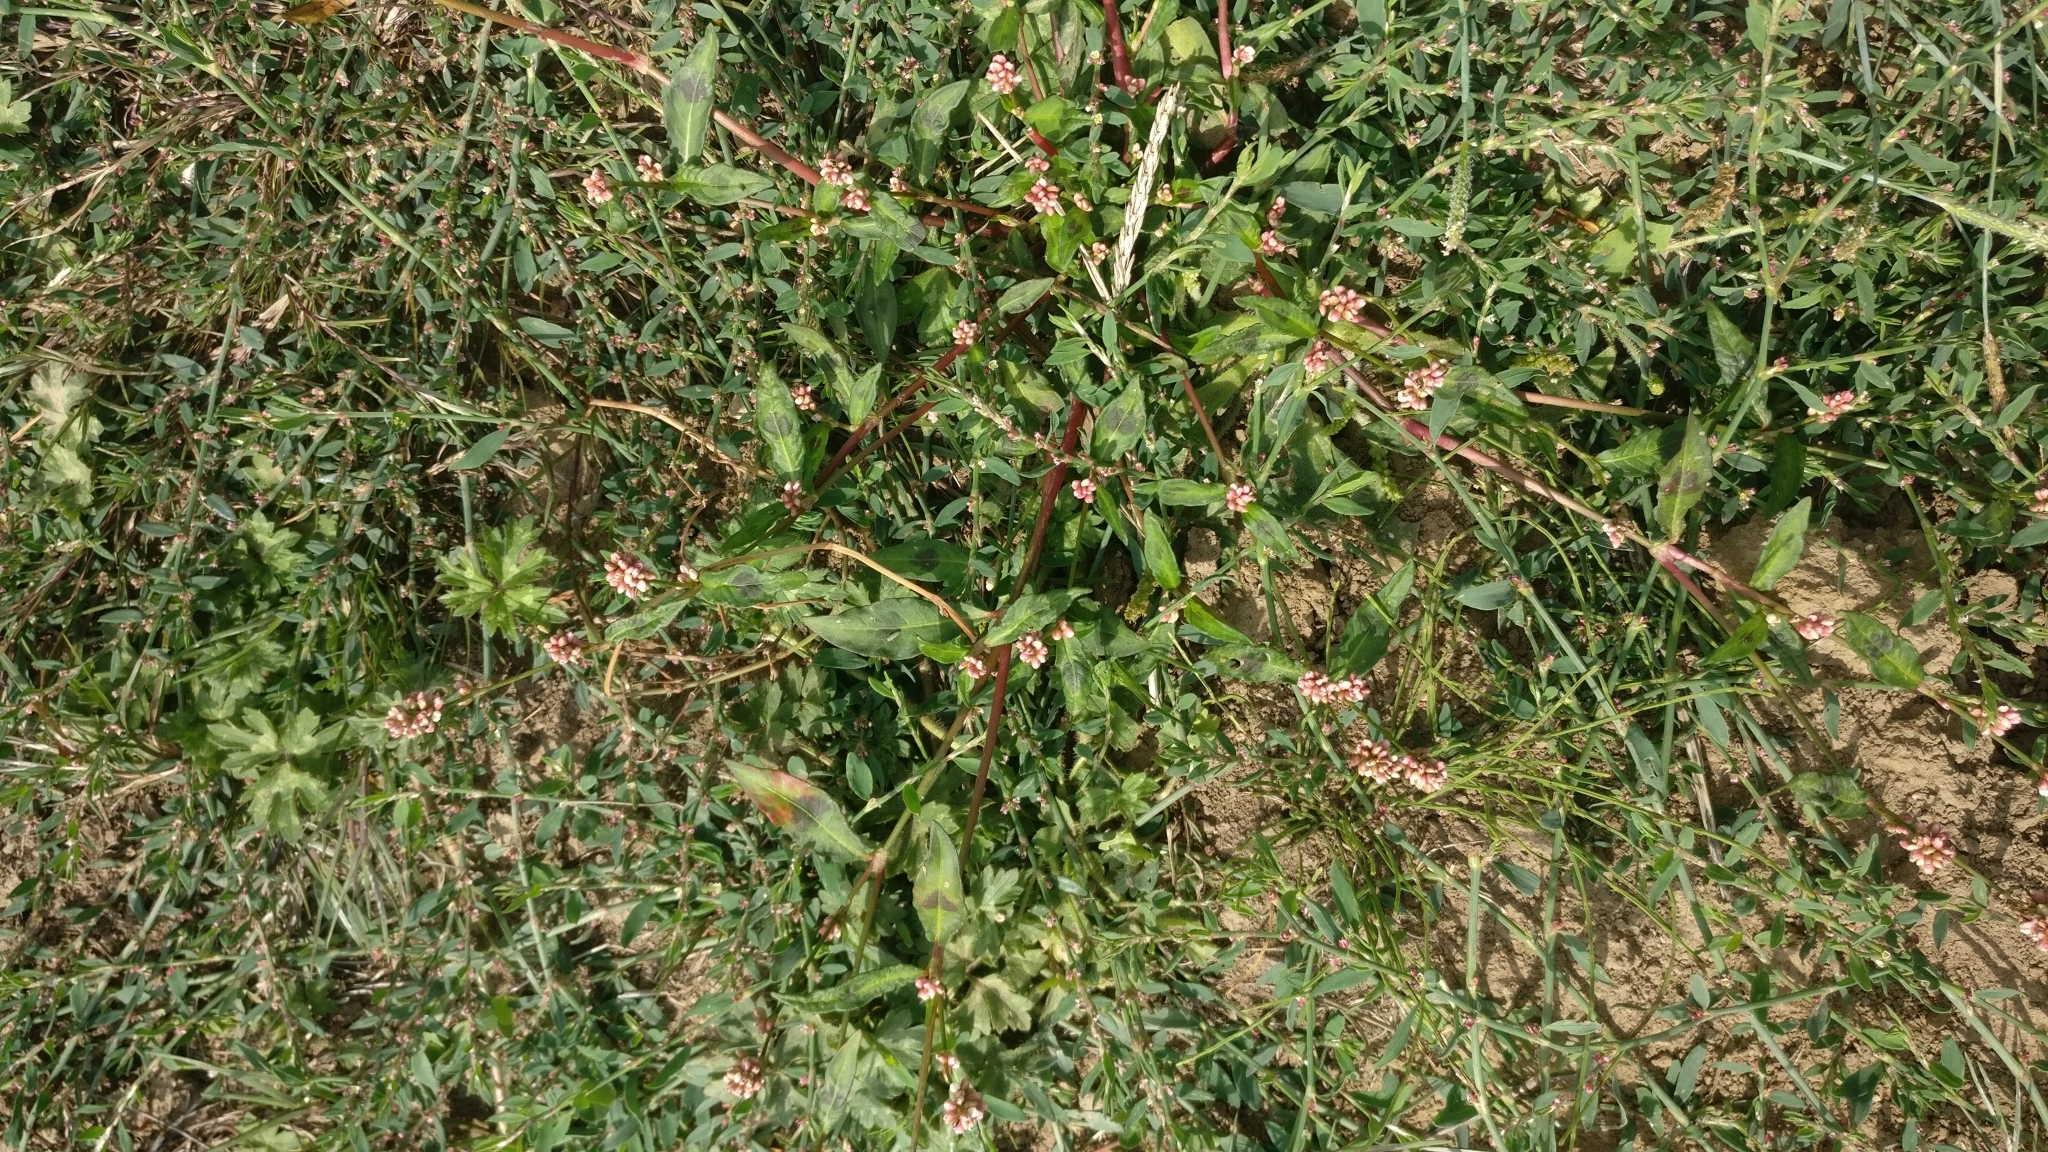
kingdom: Plantae
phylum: Tracheophyta
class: Magnoliopsida
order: Caryophyllales
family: Polygonaceae
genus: Persicaria
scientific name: Persicaria maculosa
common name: Redshank
